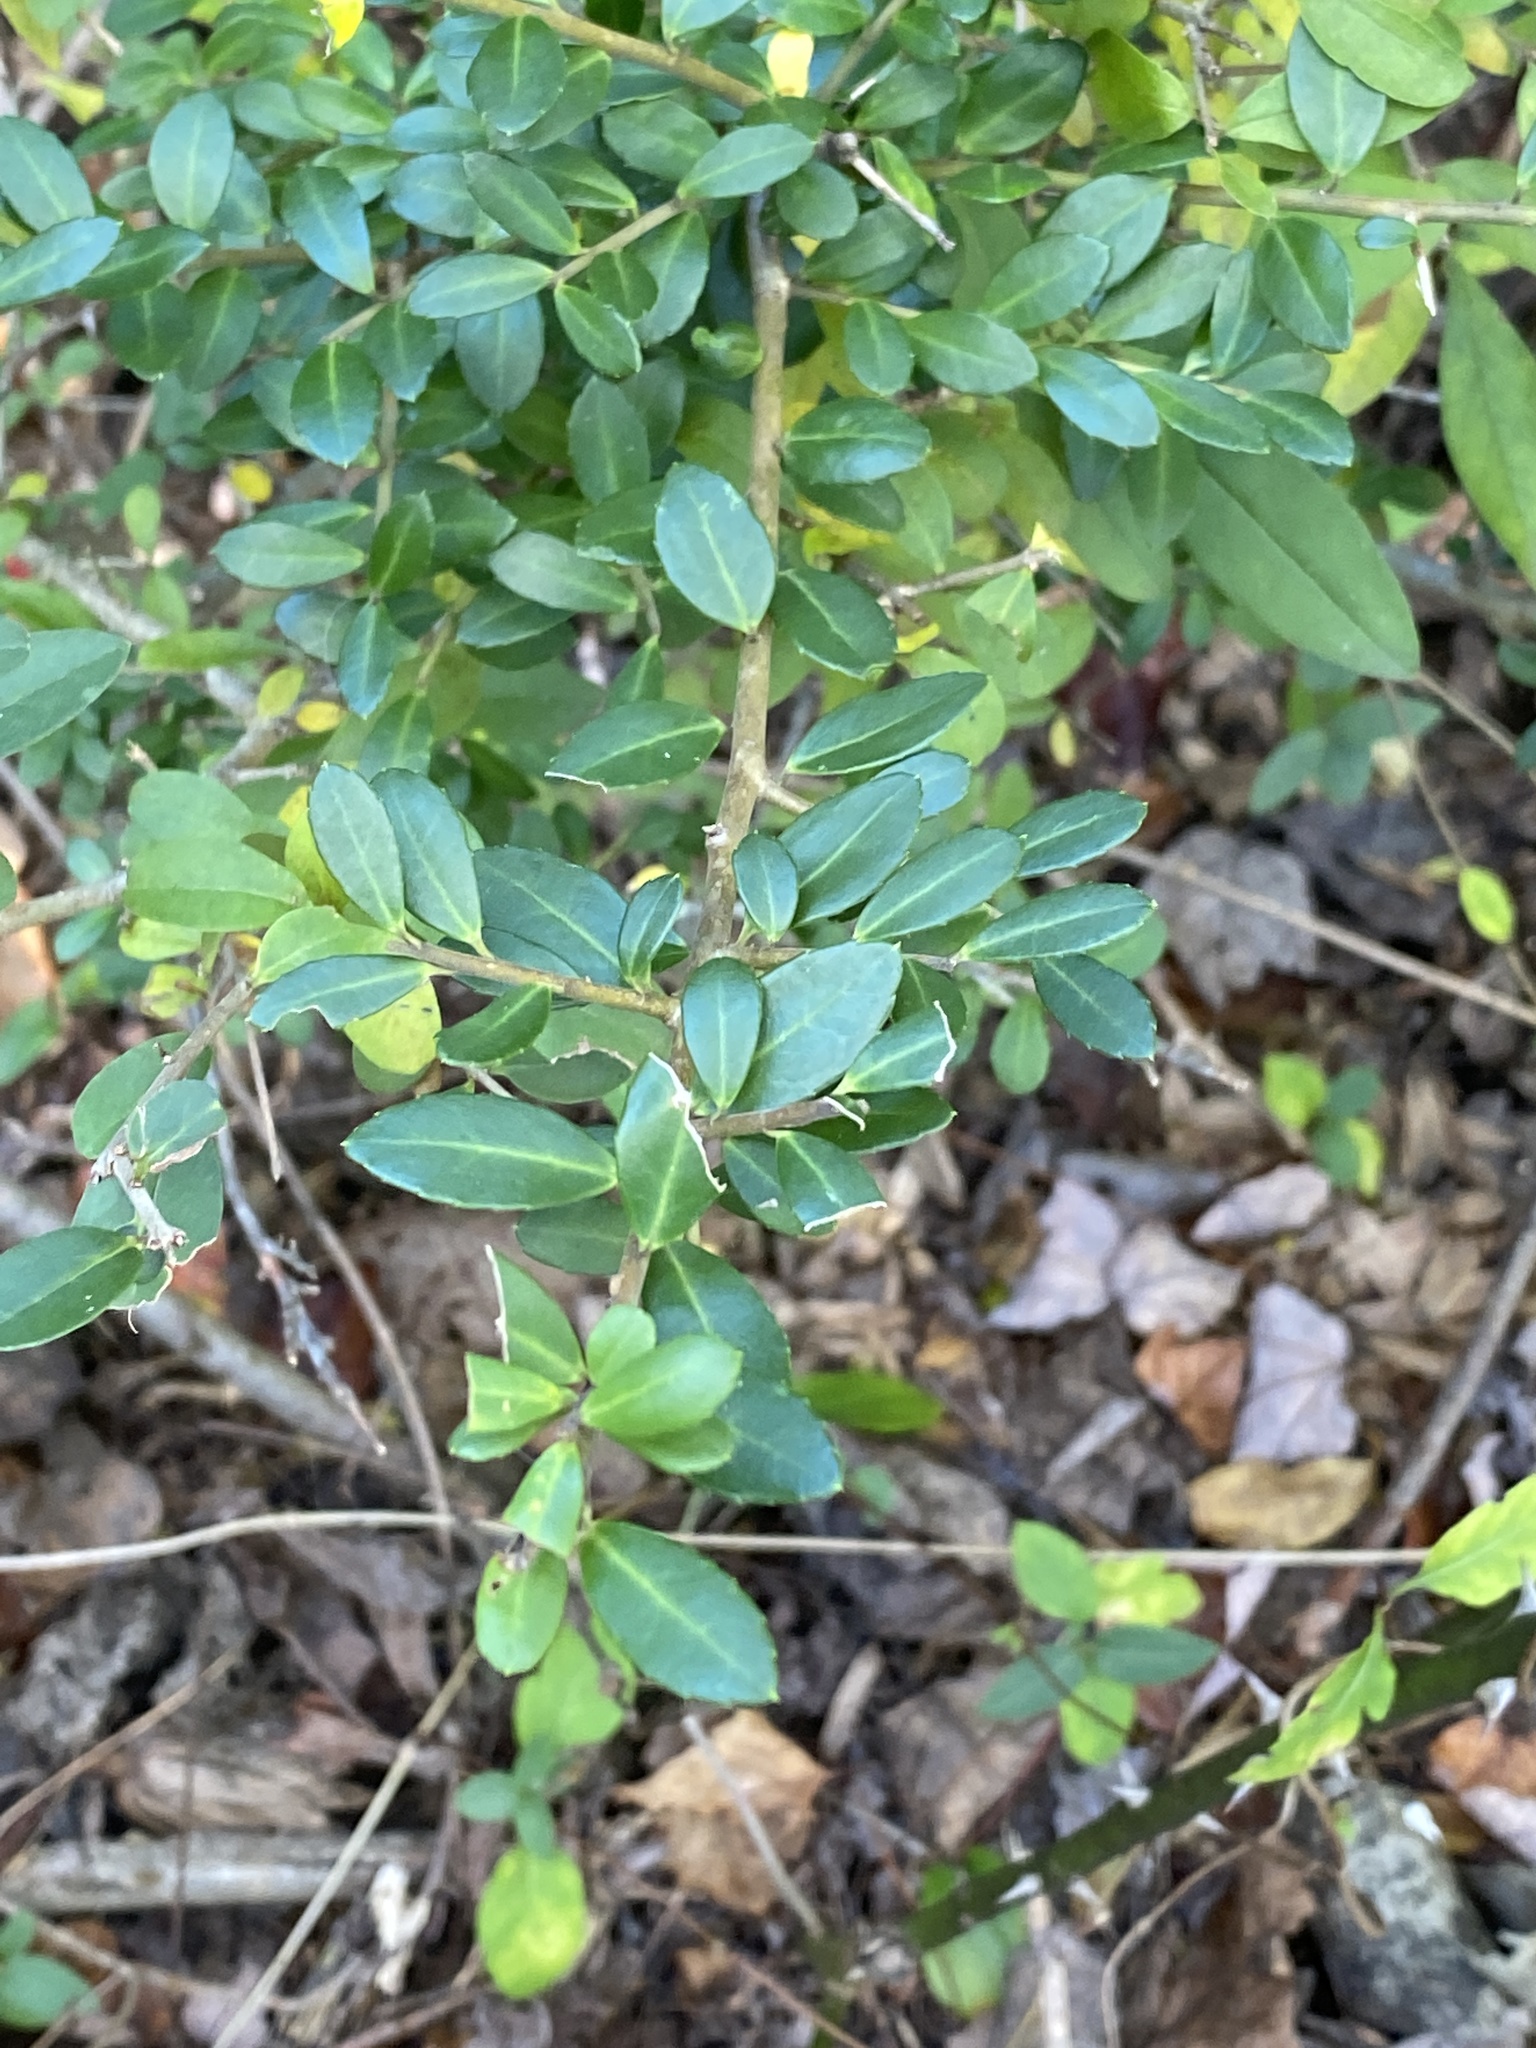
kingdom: Plantae
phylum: Tracheophyta
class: Magnoliopsida
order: Aquifoliales
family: Aquifoliaceae
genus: Ilex
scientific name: Ilex crenata
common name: Japanese holly
